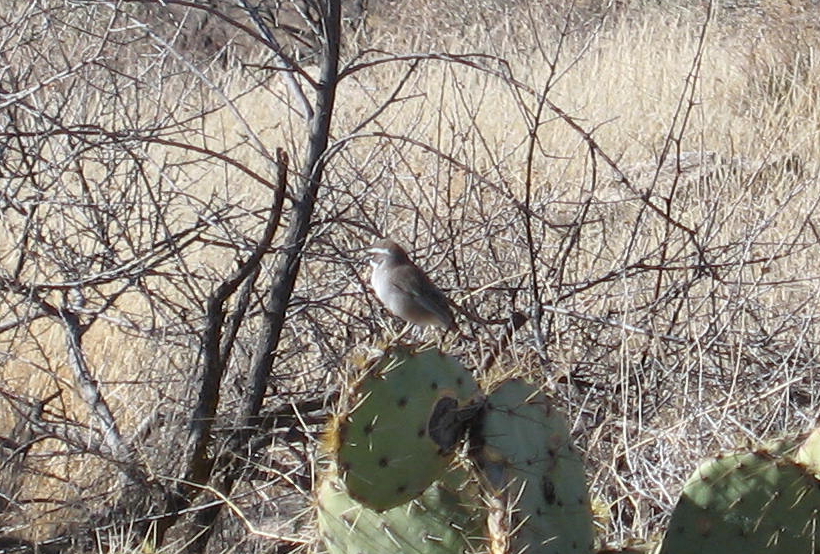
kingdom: Animalia
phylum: Chordata
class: Aves
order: Passeriformes
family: Passerellidae
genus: Amphispiza
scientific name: Amphispiza bilineata
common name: Black-throated sparrow
